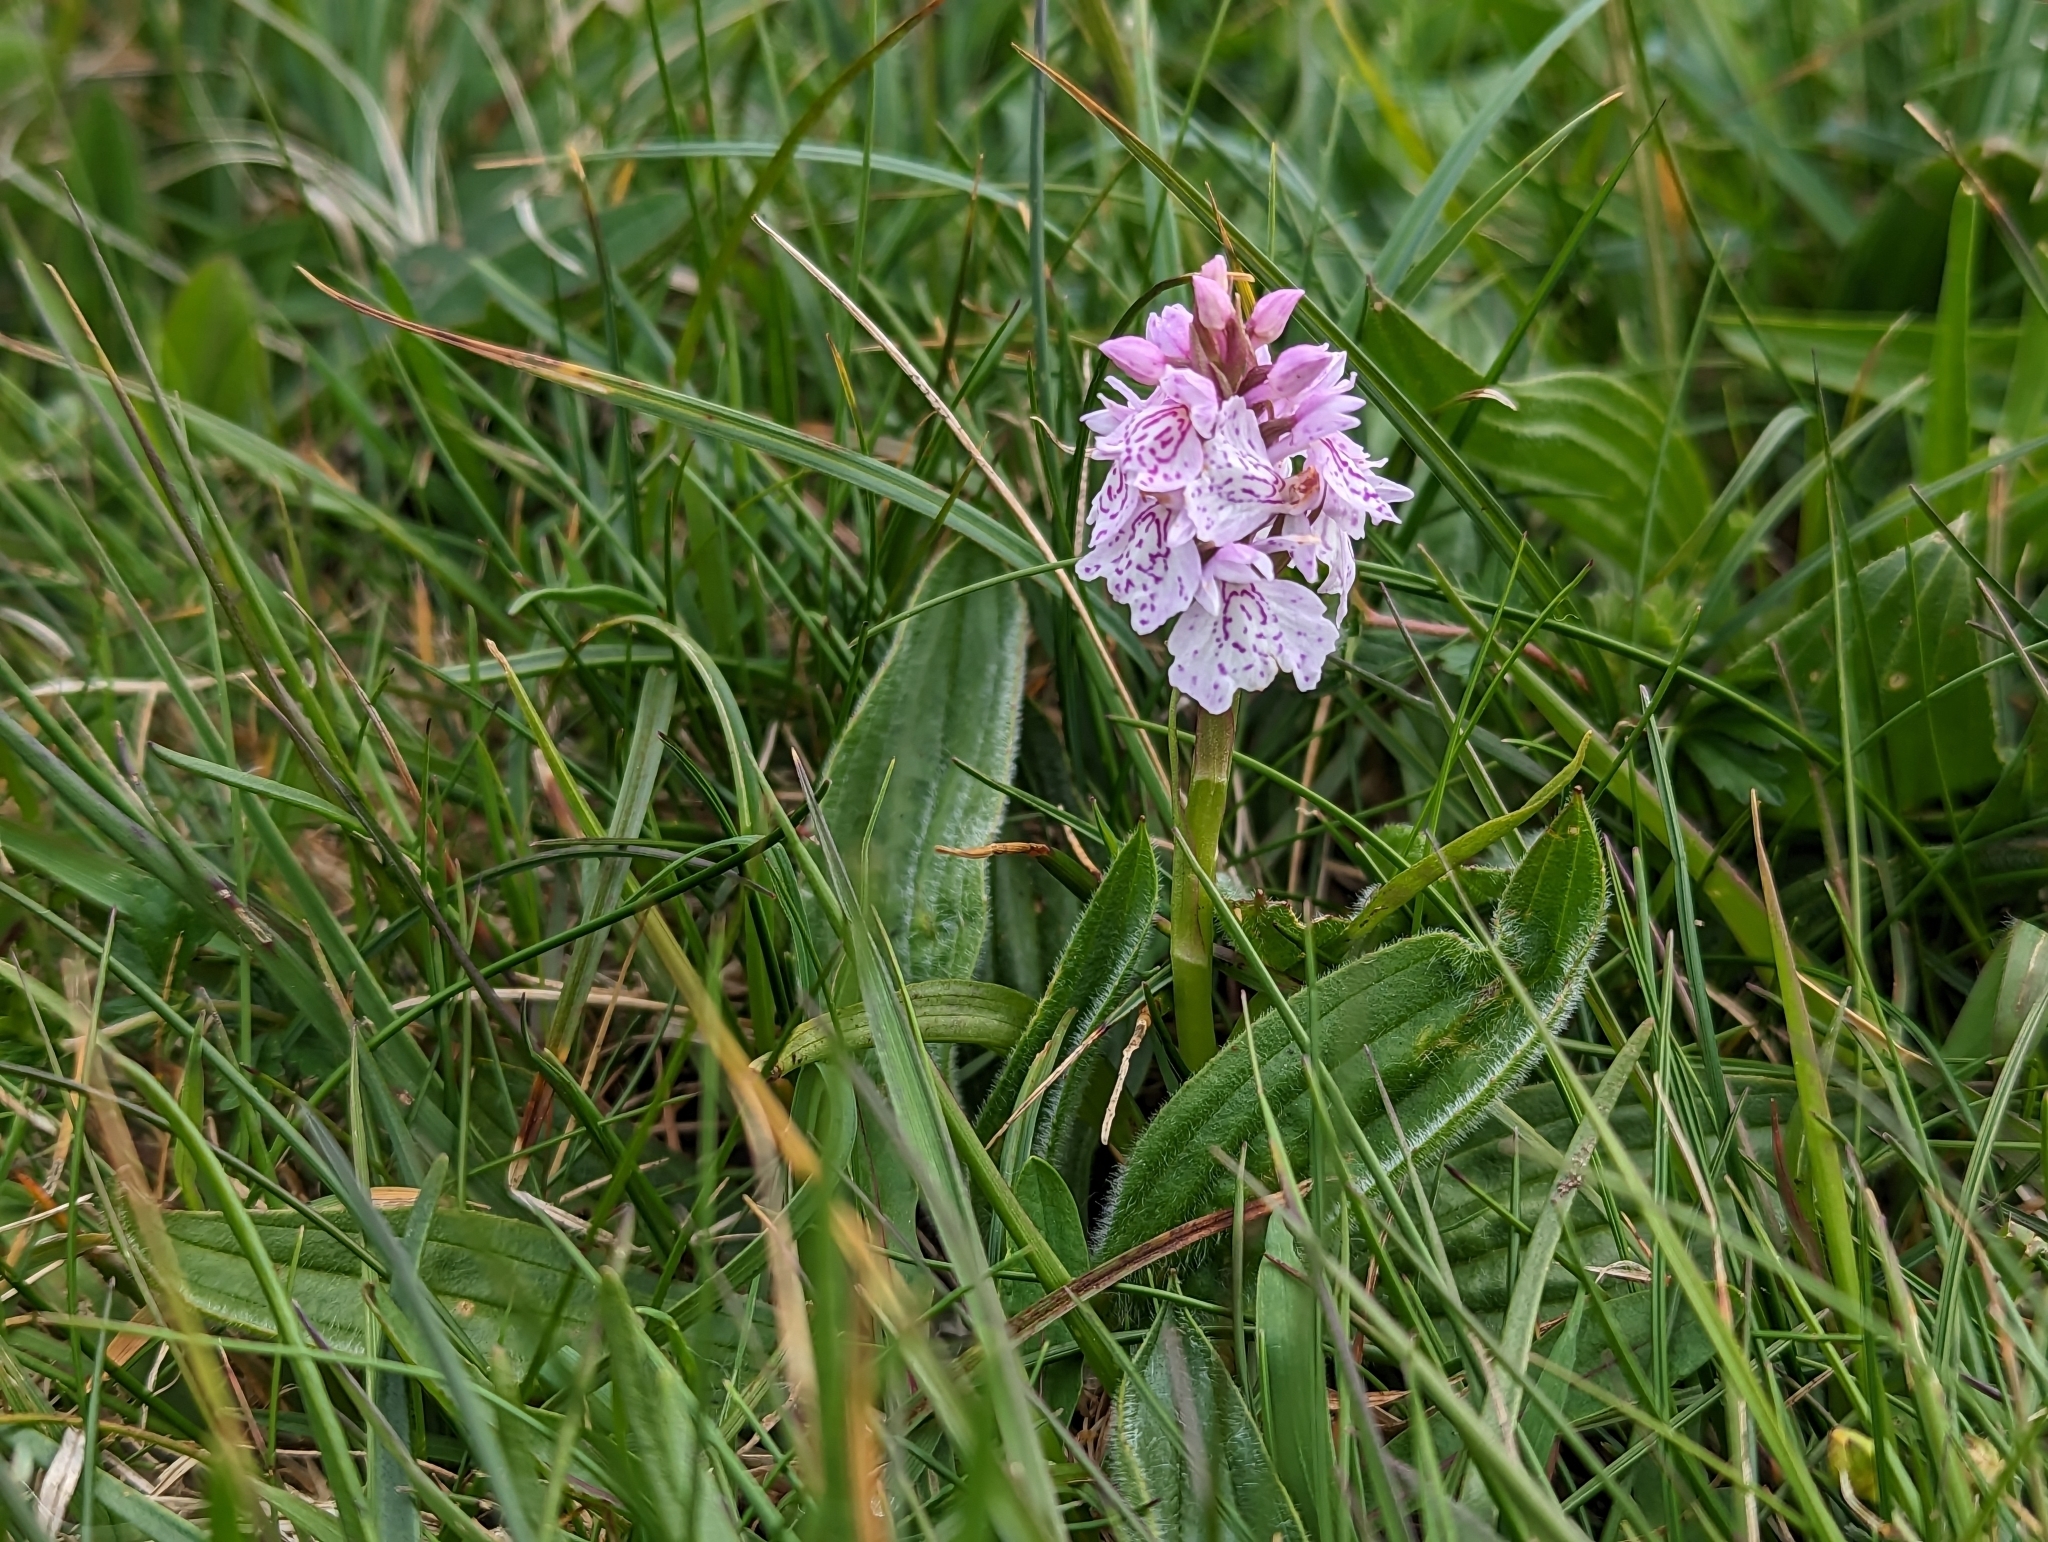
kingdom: Plantae
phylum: Tracheophyta
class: Liliopsida
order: Asparagales
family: Orchidaceae
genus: Dactylorhiza
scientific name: Dactylorhiza maculata
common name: Heath spotted-orchid
